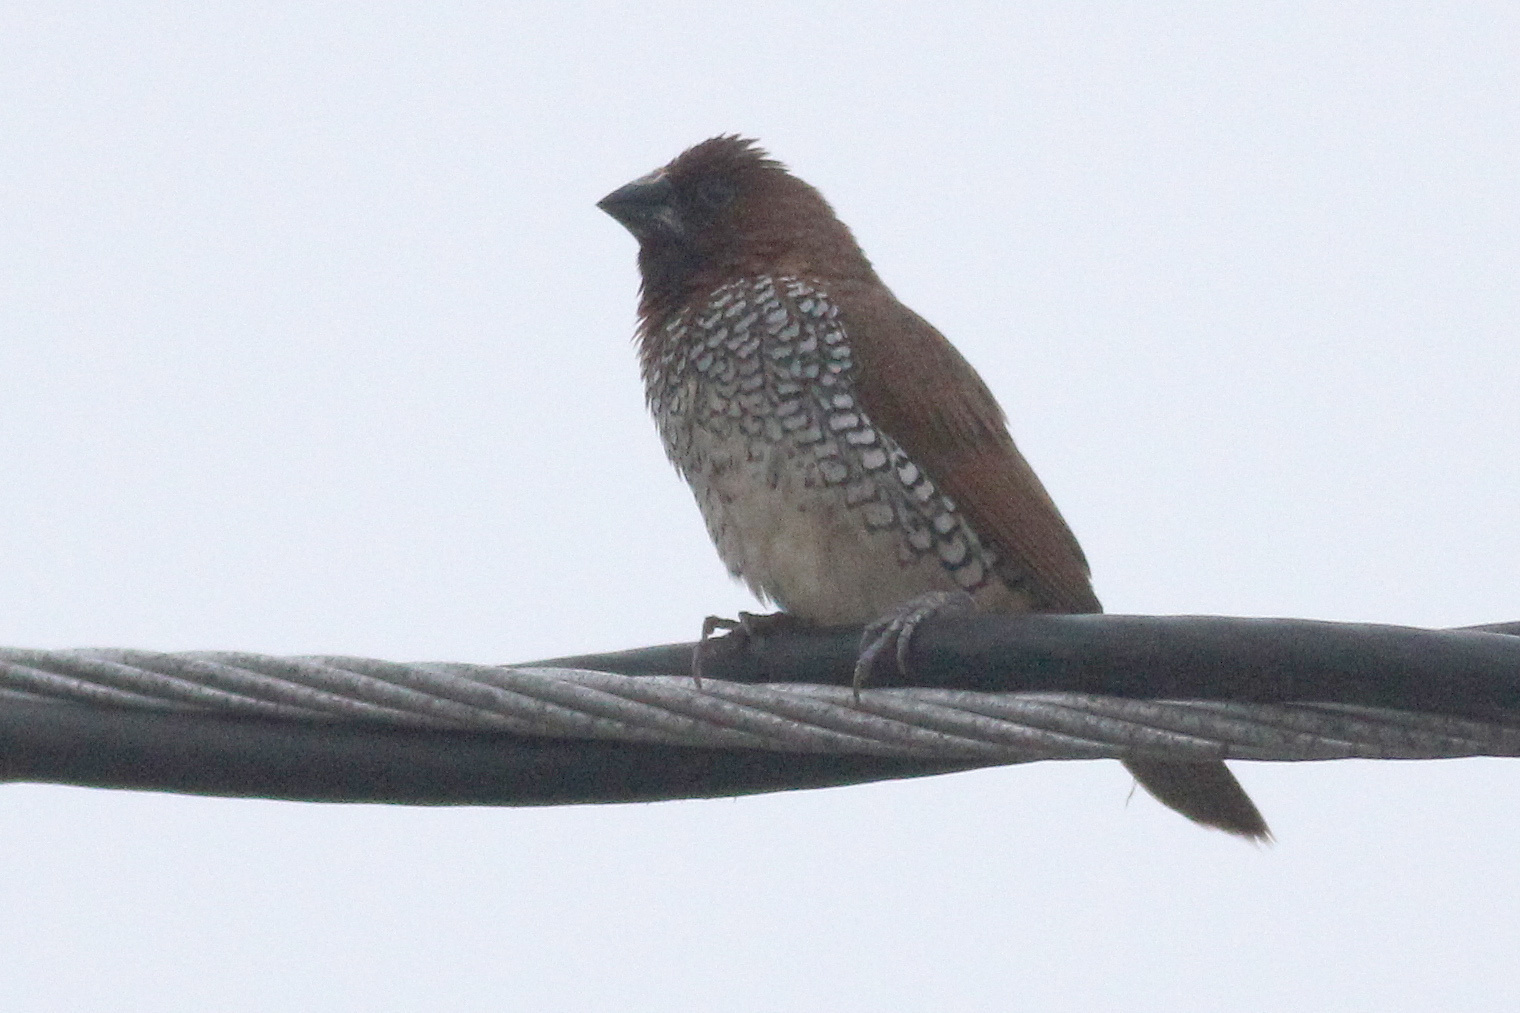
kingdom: Animalia
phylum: Chordata
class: Aves
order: Passeriformes
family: Estrildidae
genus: Lonchura
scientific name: Lonchura punctulata
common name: Scaly-breasted munia
